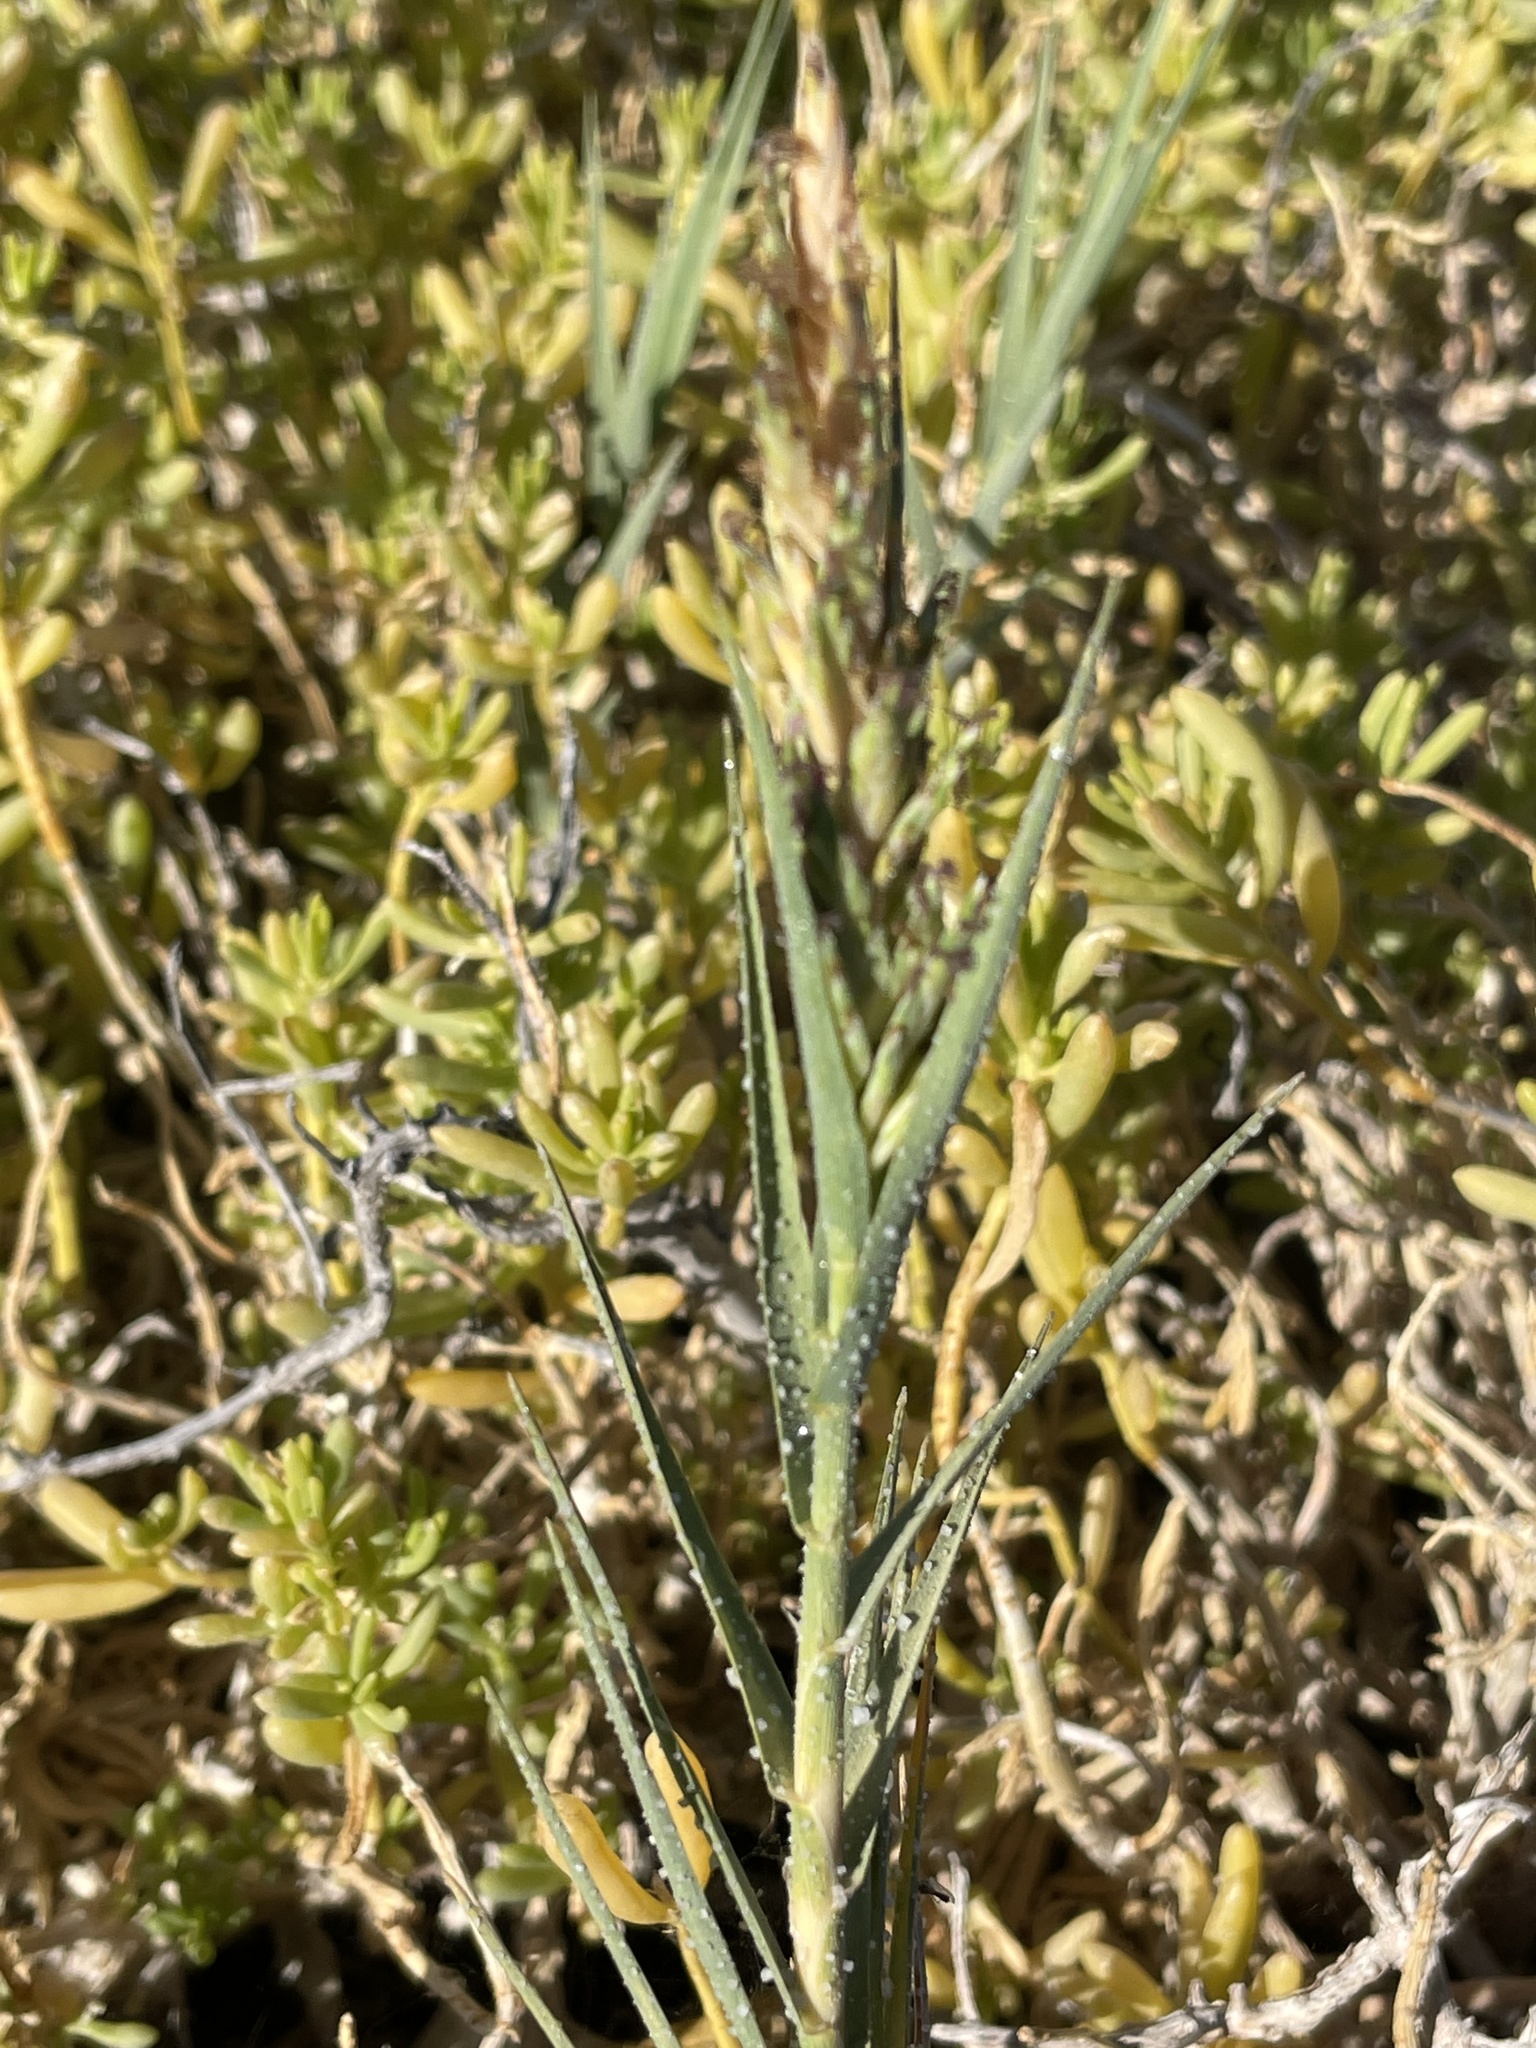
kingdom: Plantae
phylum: Tracheophyta
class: Liliopsida
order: Poales
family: Poaceae
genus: Distichlis
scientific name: Distichlis spicata
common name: Saltgrass
